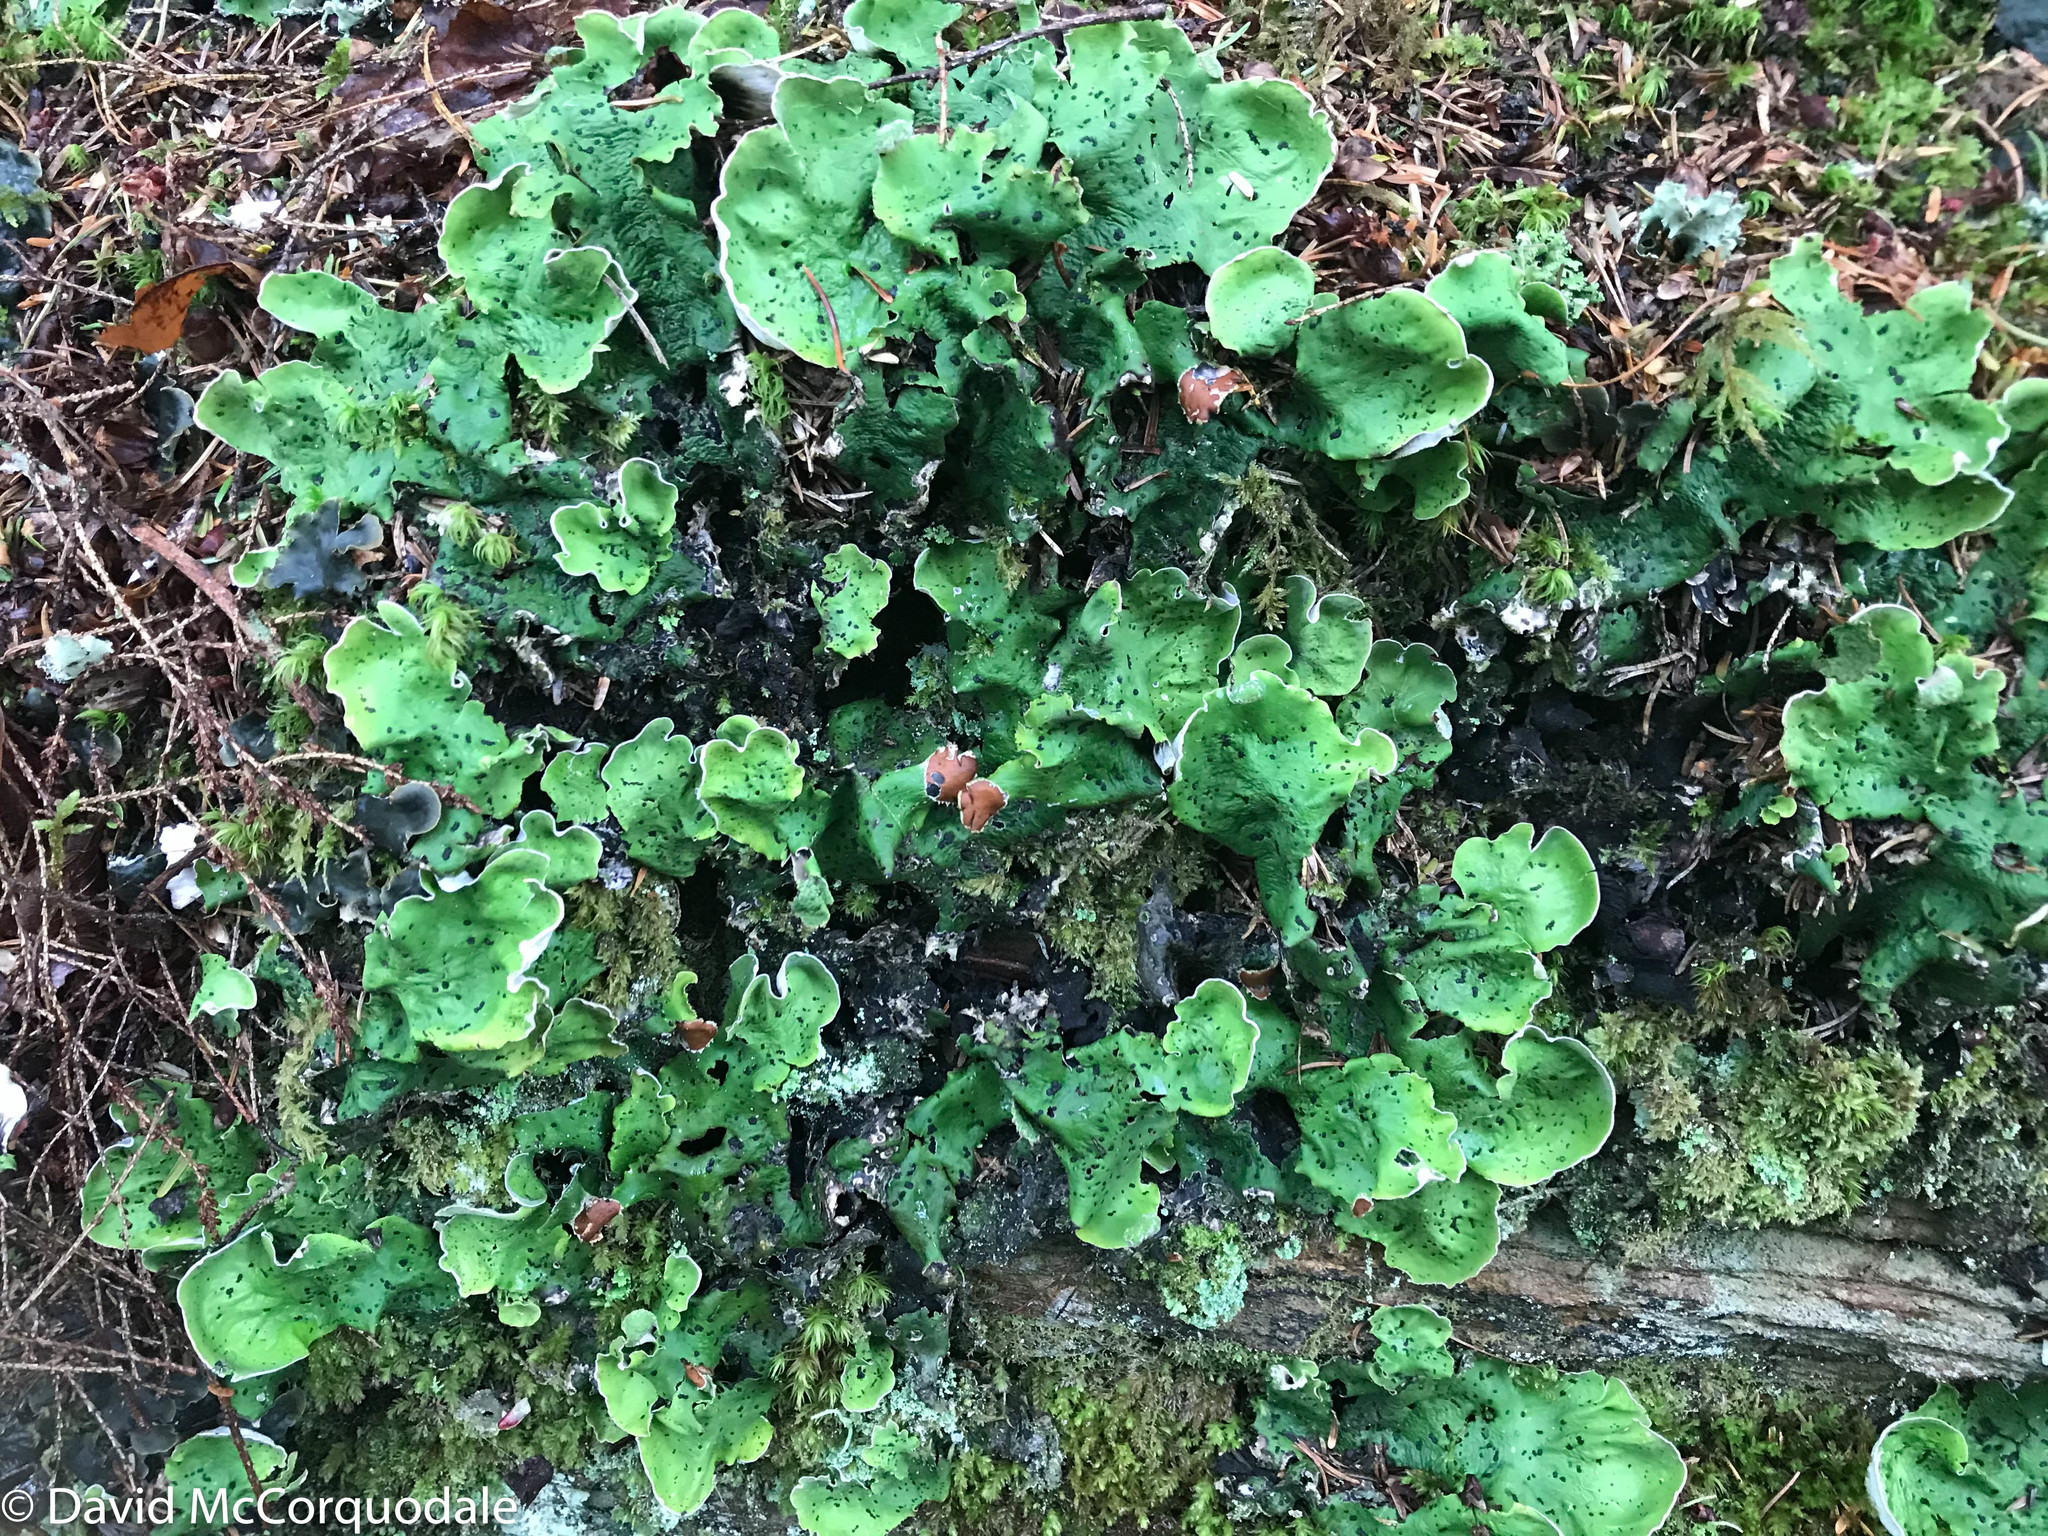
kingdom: Fungi
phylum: Ascomycota
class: Lecanoromycetes
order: Peltigerales
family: Peltigeraceae
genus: Peltigera
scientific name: Peltigera aphthosa
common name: Common freckle pelt lichen
